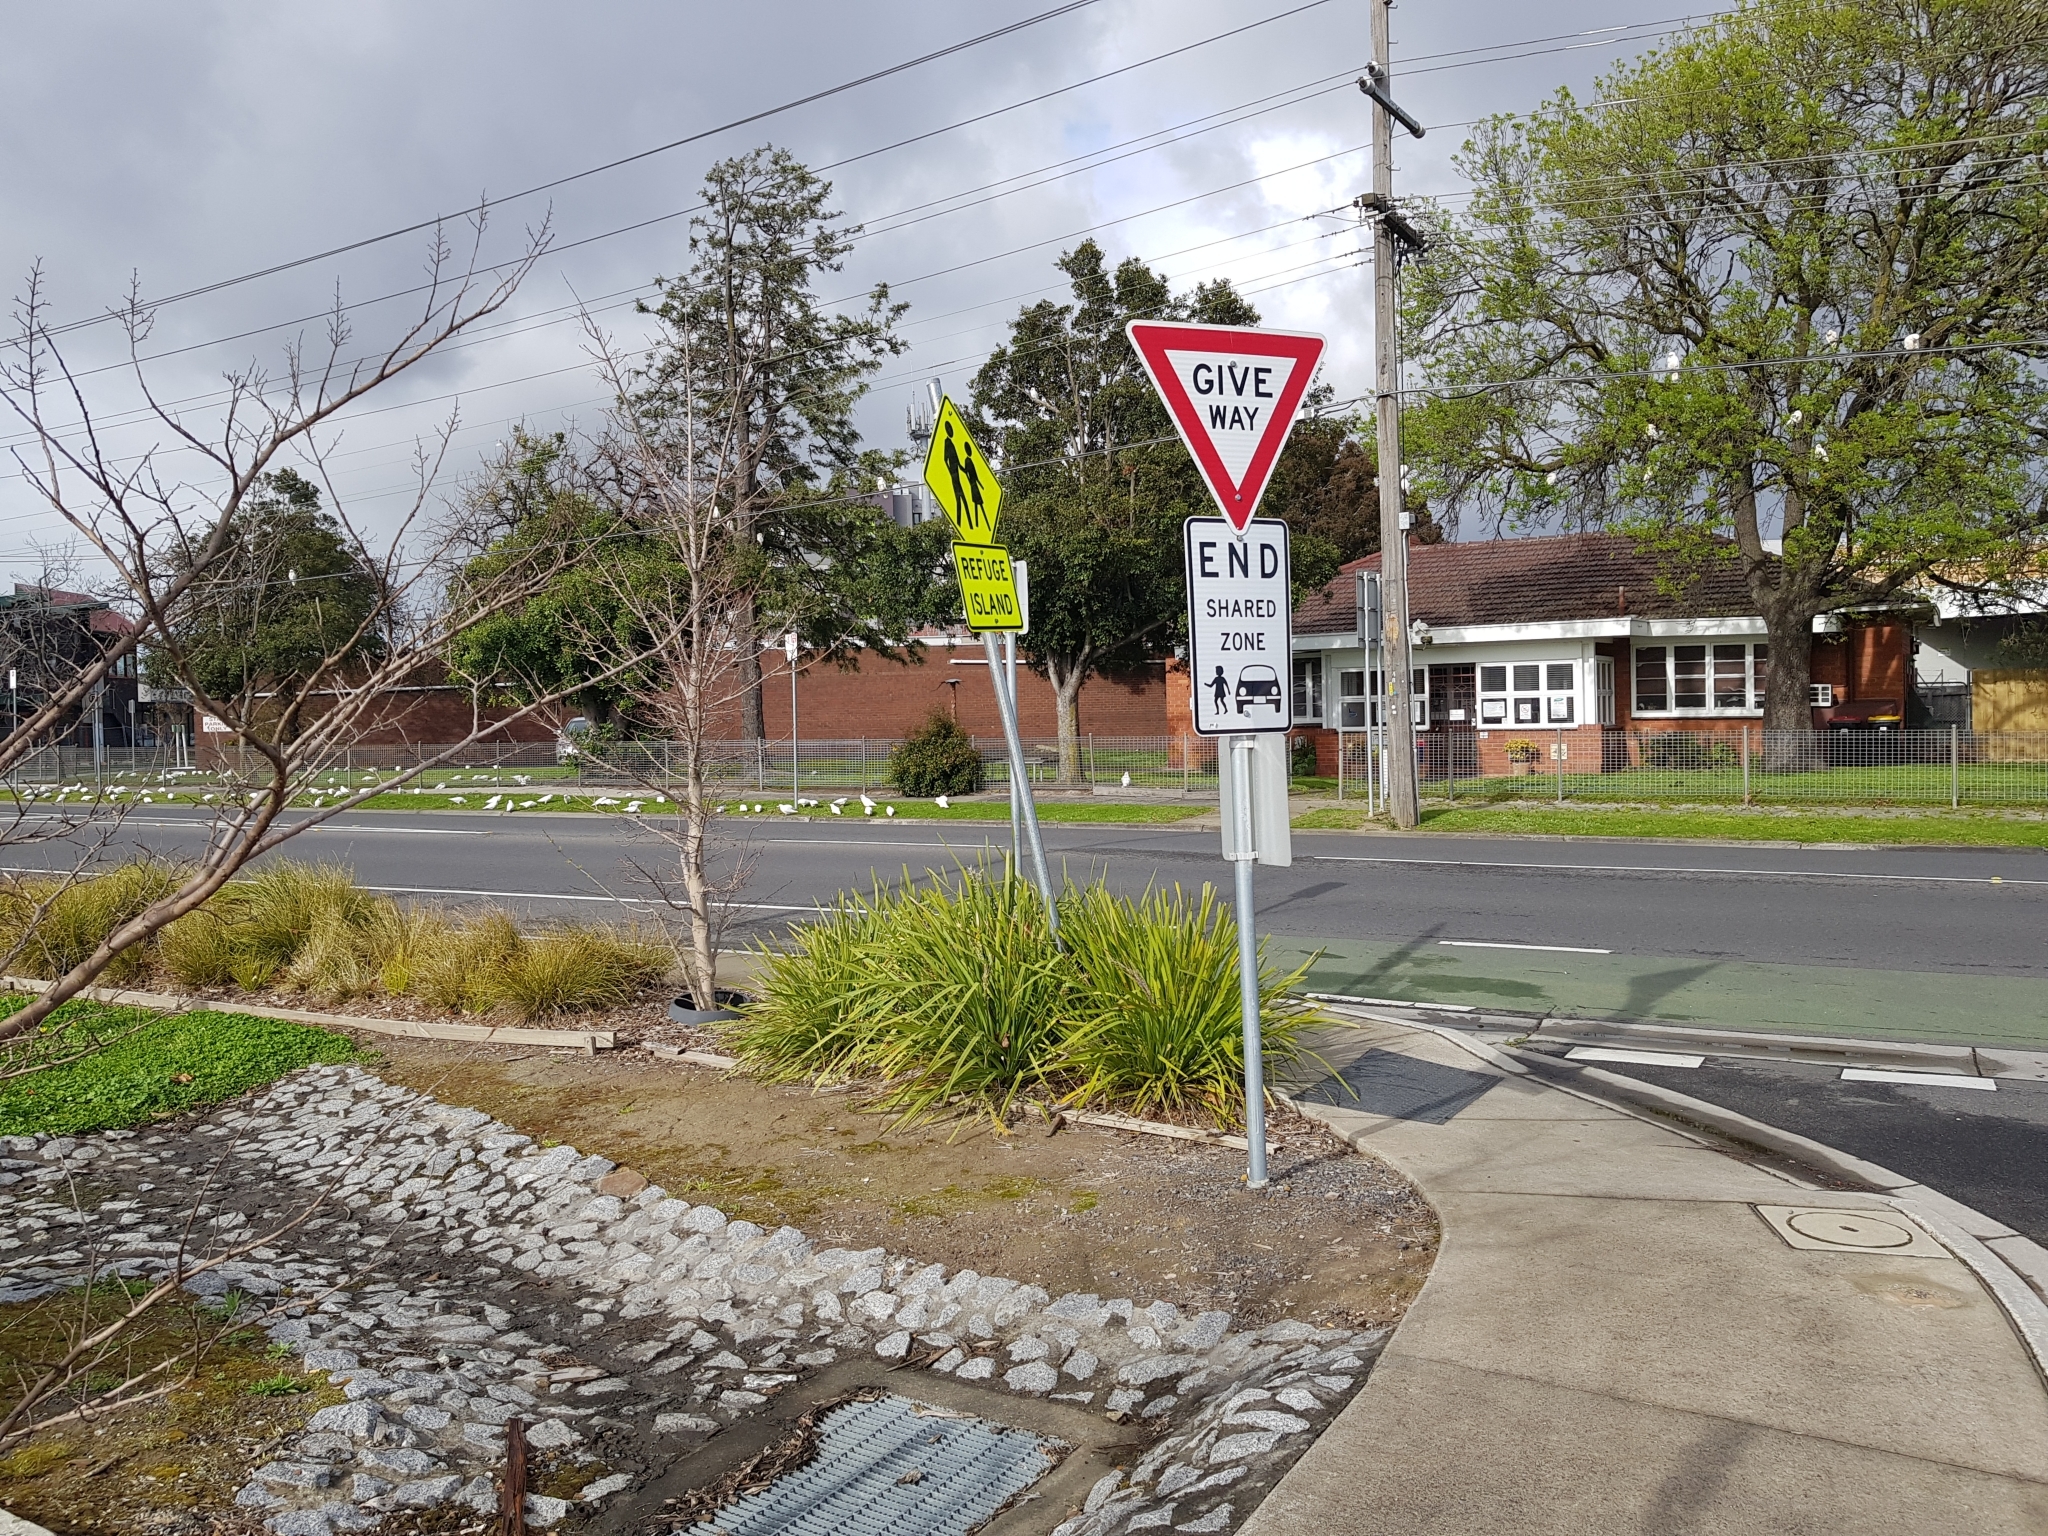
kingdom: Animalia
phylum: Chordata
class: Aves
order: Psittaciformes
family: Psittacidae
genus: Cacatua
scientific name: Cacatua sanguinea
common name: Little corella
